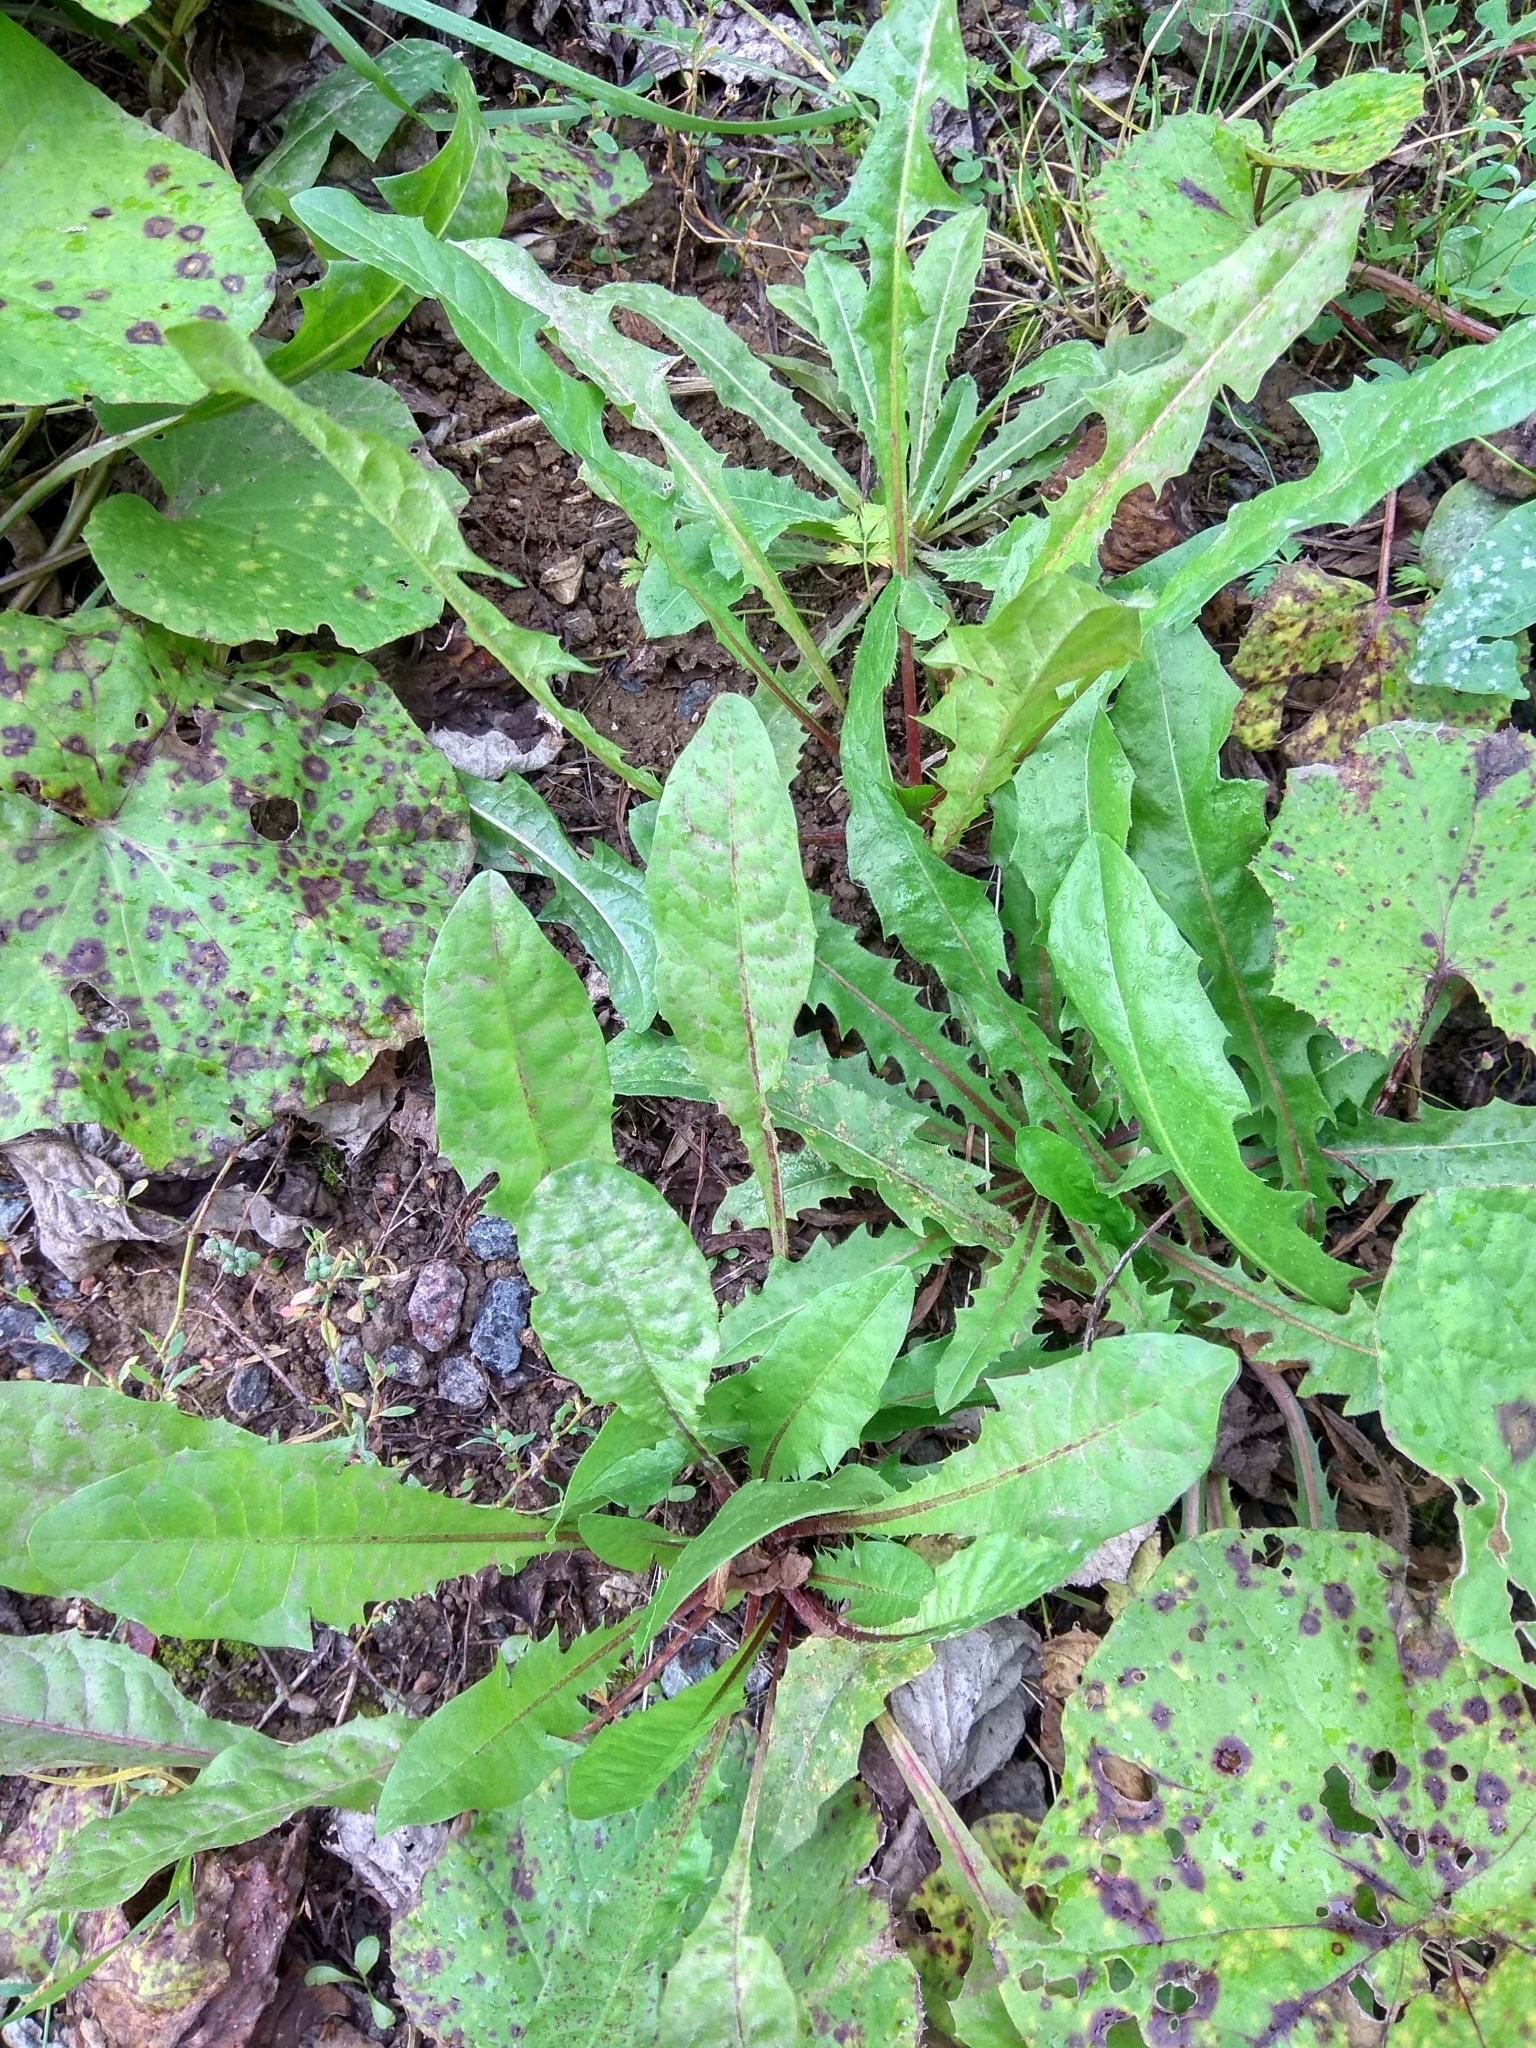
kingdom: Plantae
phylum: Tracheophyta
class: Magnoliopsida
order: Asterales
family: Asteraceae
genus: Taraxacum
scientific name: Taraxacum officinale
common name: Common dandelion
